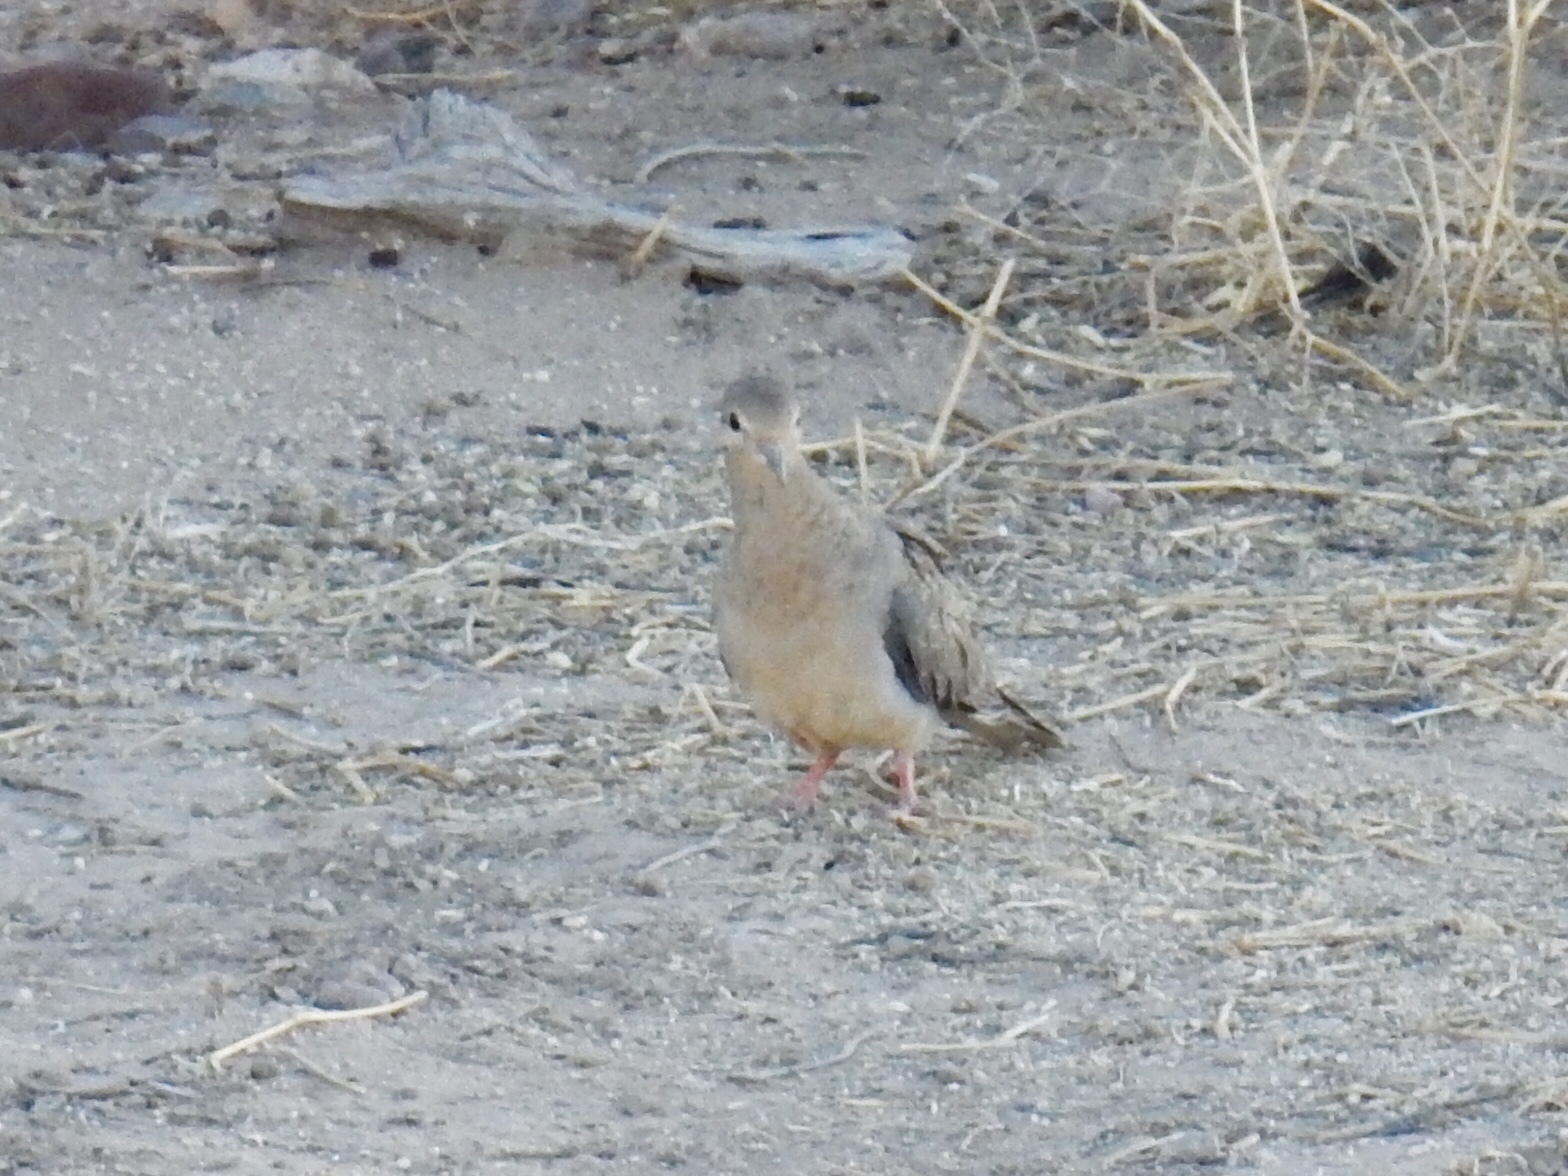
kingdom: Animalia
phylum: Chordata
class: Aves
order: Columbiformes
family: Columbidae
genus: Zenaida
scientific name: Zenaida macroura
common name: Mourning dove
